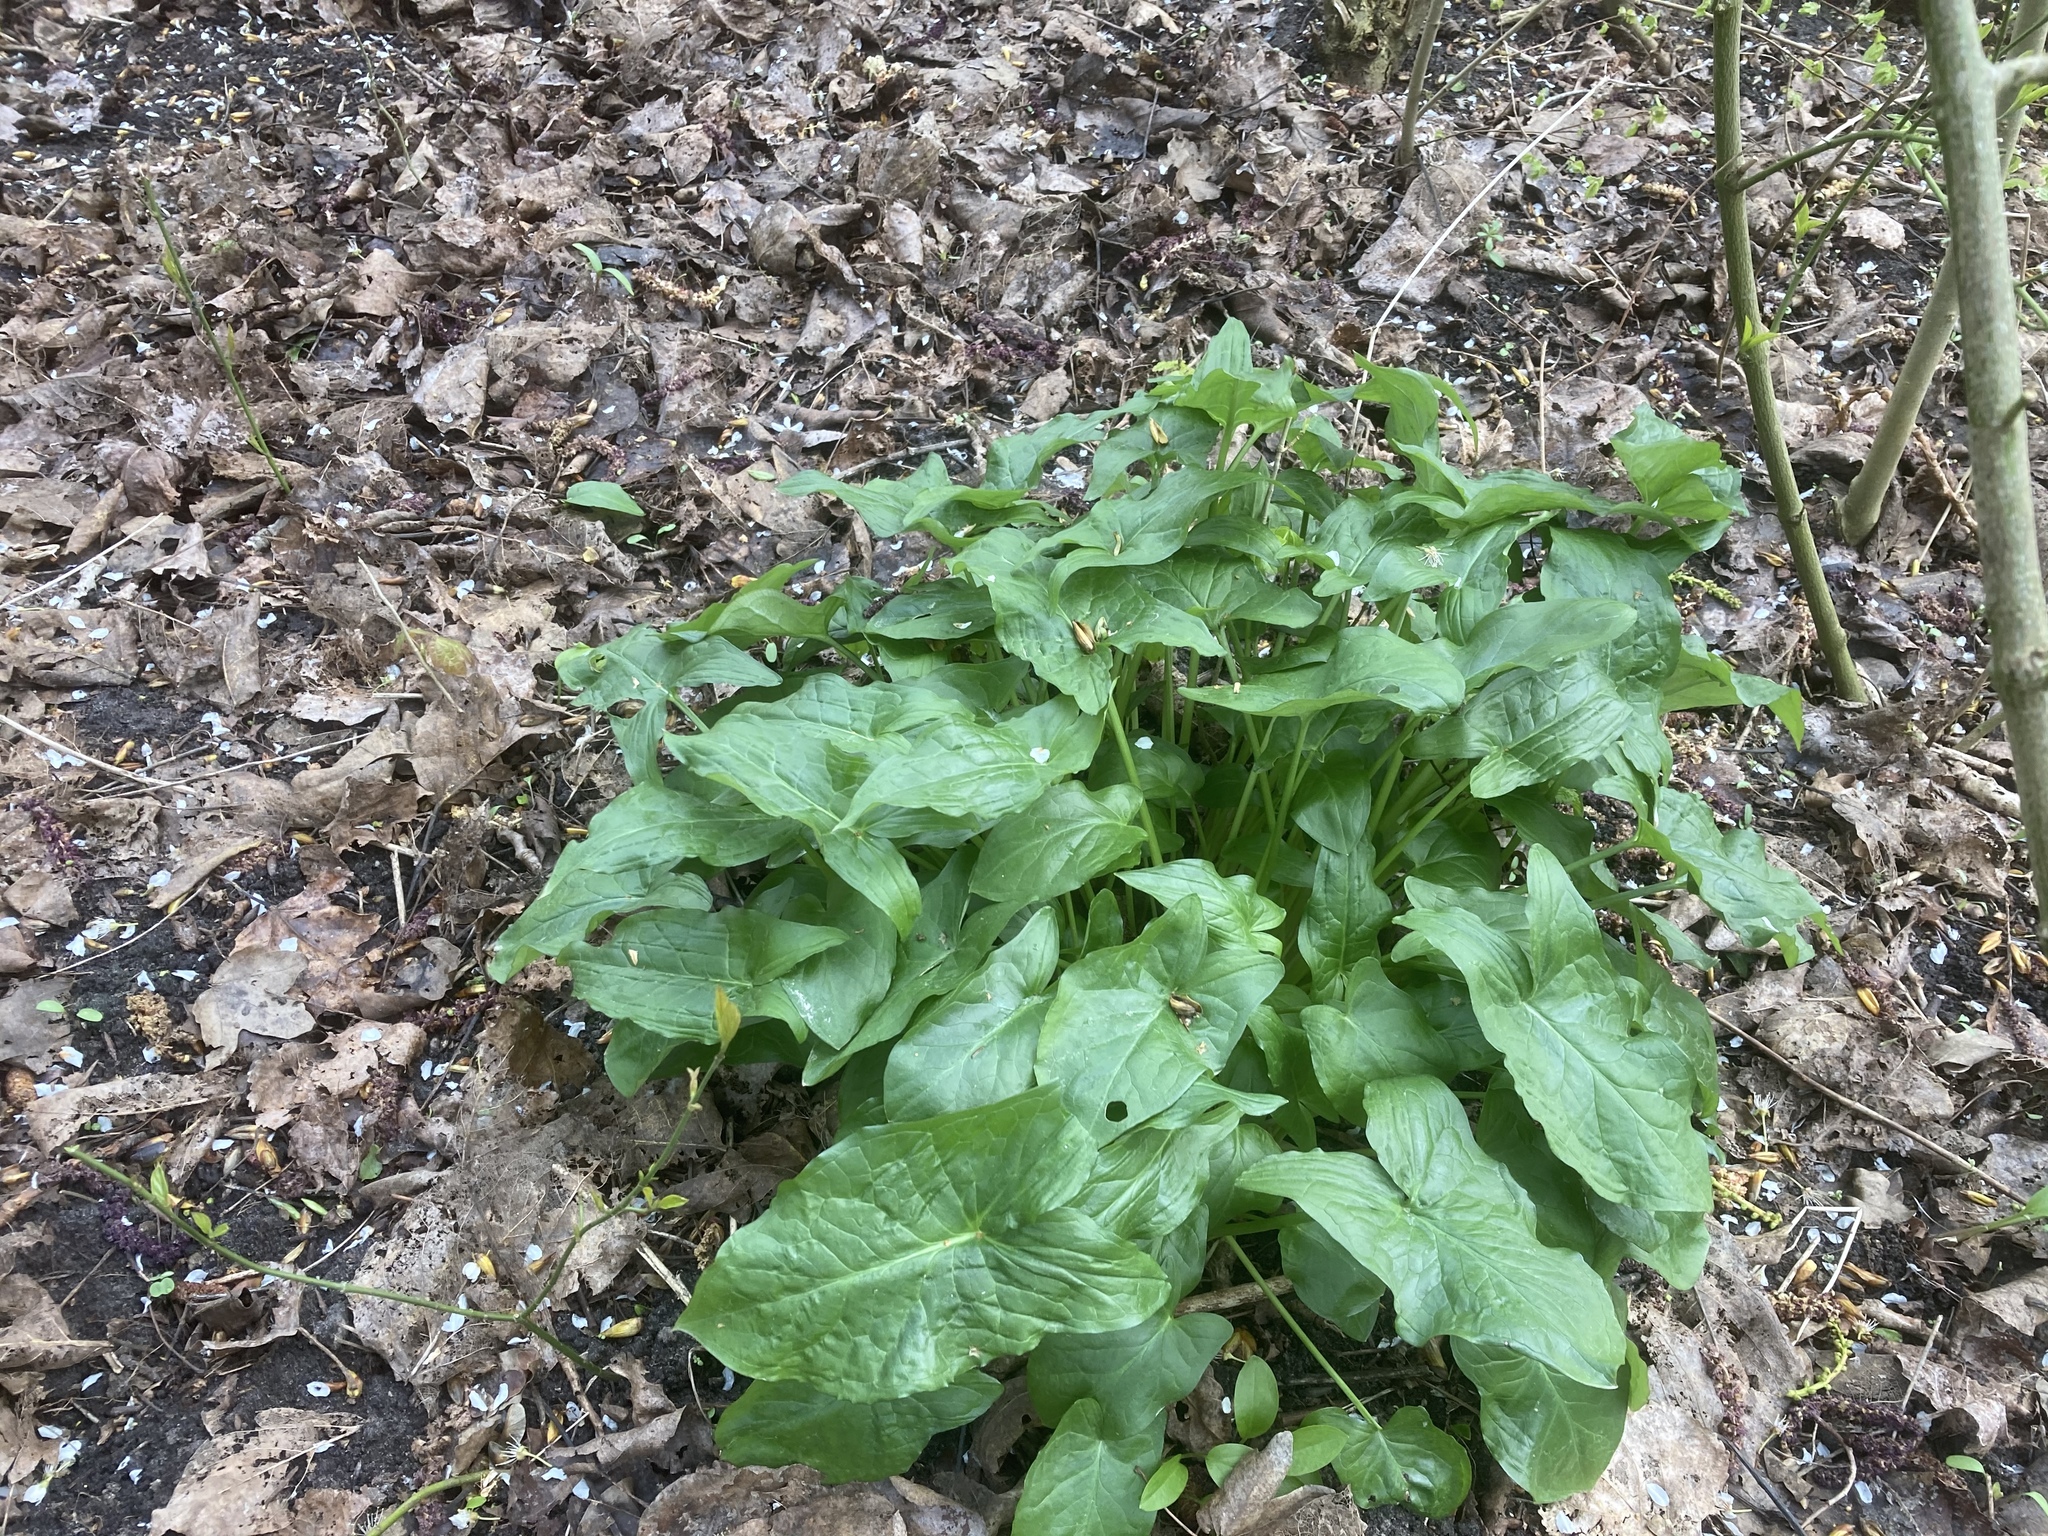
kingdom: Plantae
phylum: Tracheophyta
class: Liliopsida
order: Alismatales
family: Araceae
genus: Arum
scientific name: Arum maculatum
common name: Lords-and-ladies
